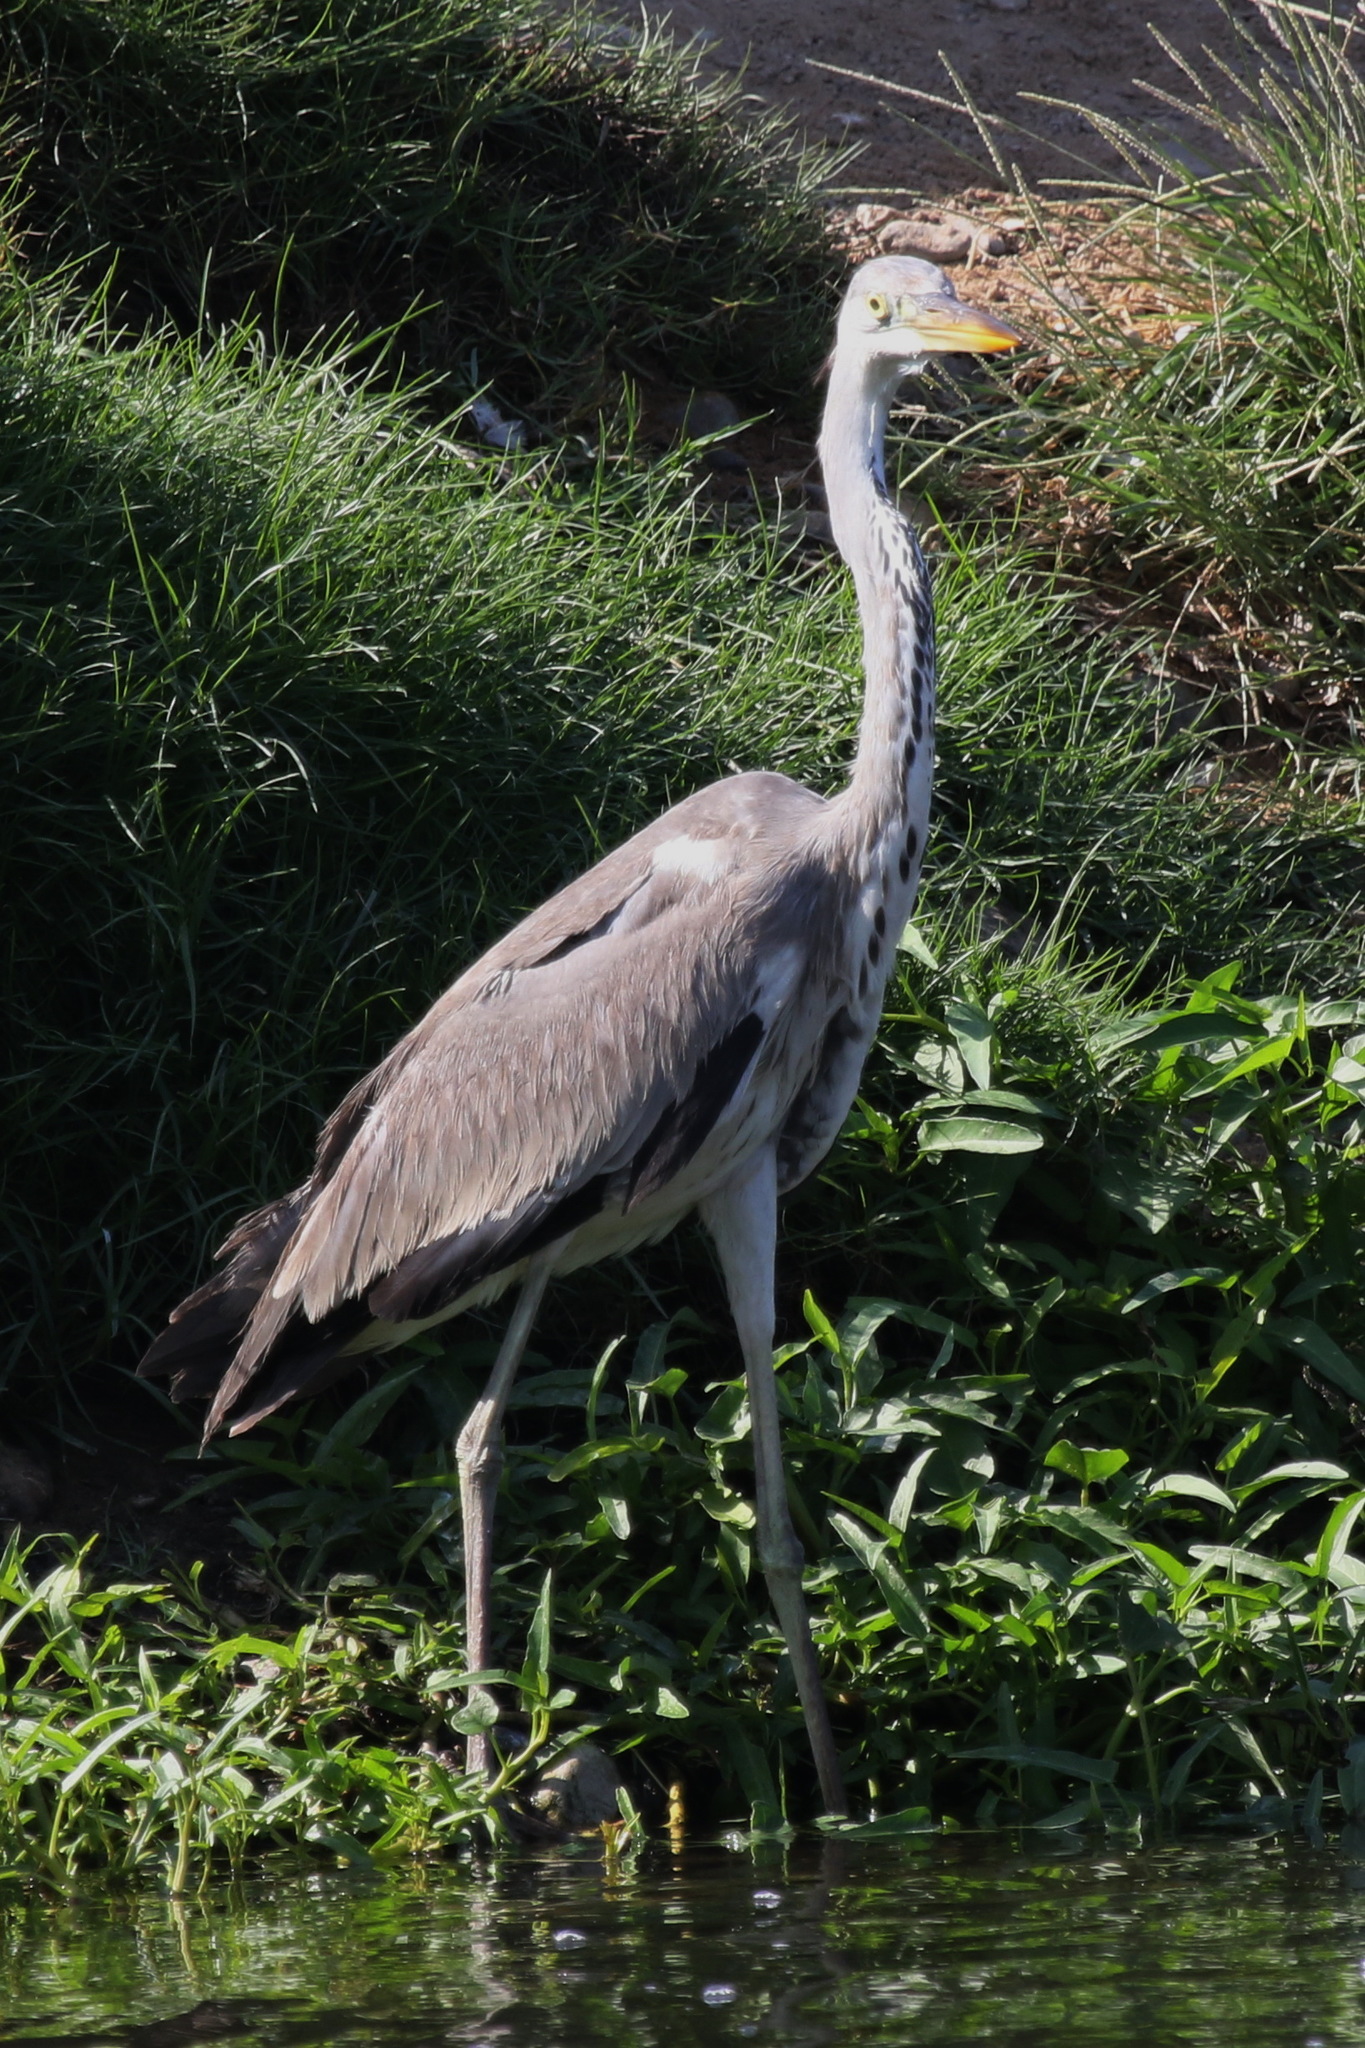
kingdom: Animalia
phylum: Chordata
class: Aves
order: Pelecaniformes
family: Ardeidae
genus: Ardea
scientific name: Ardea cinerea
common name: Grey heron
